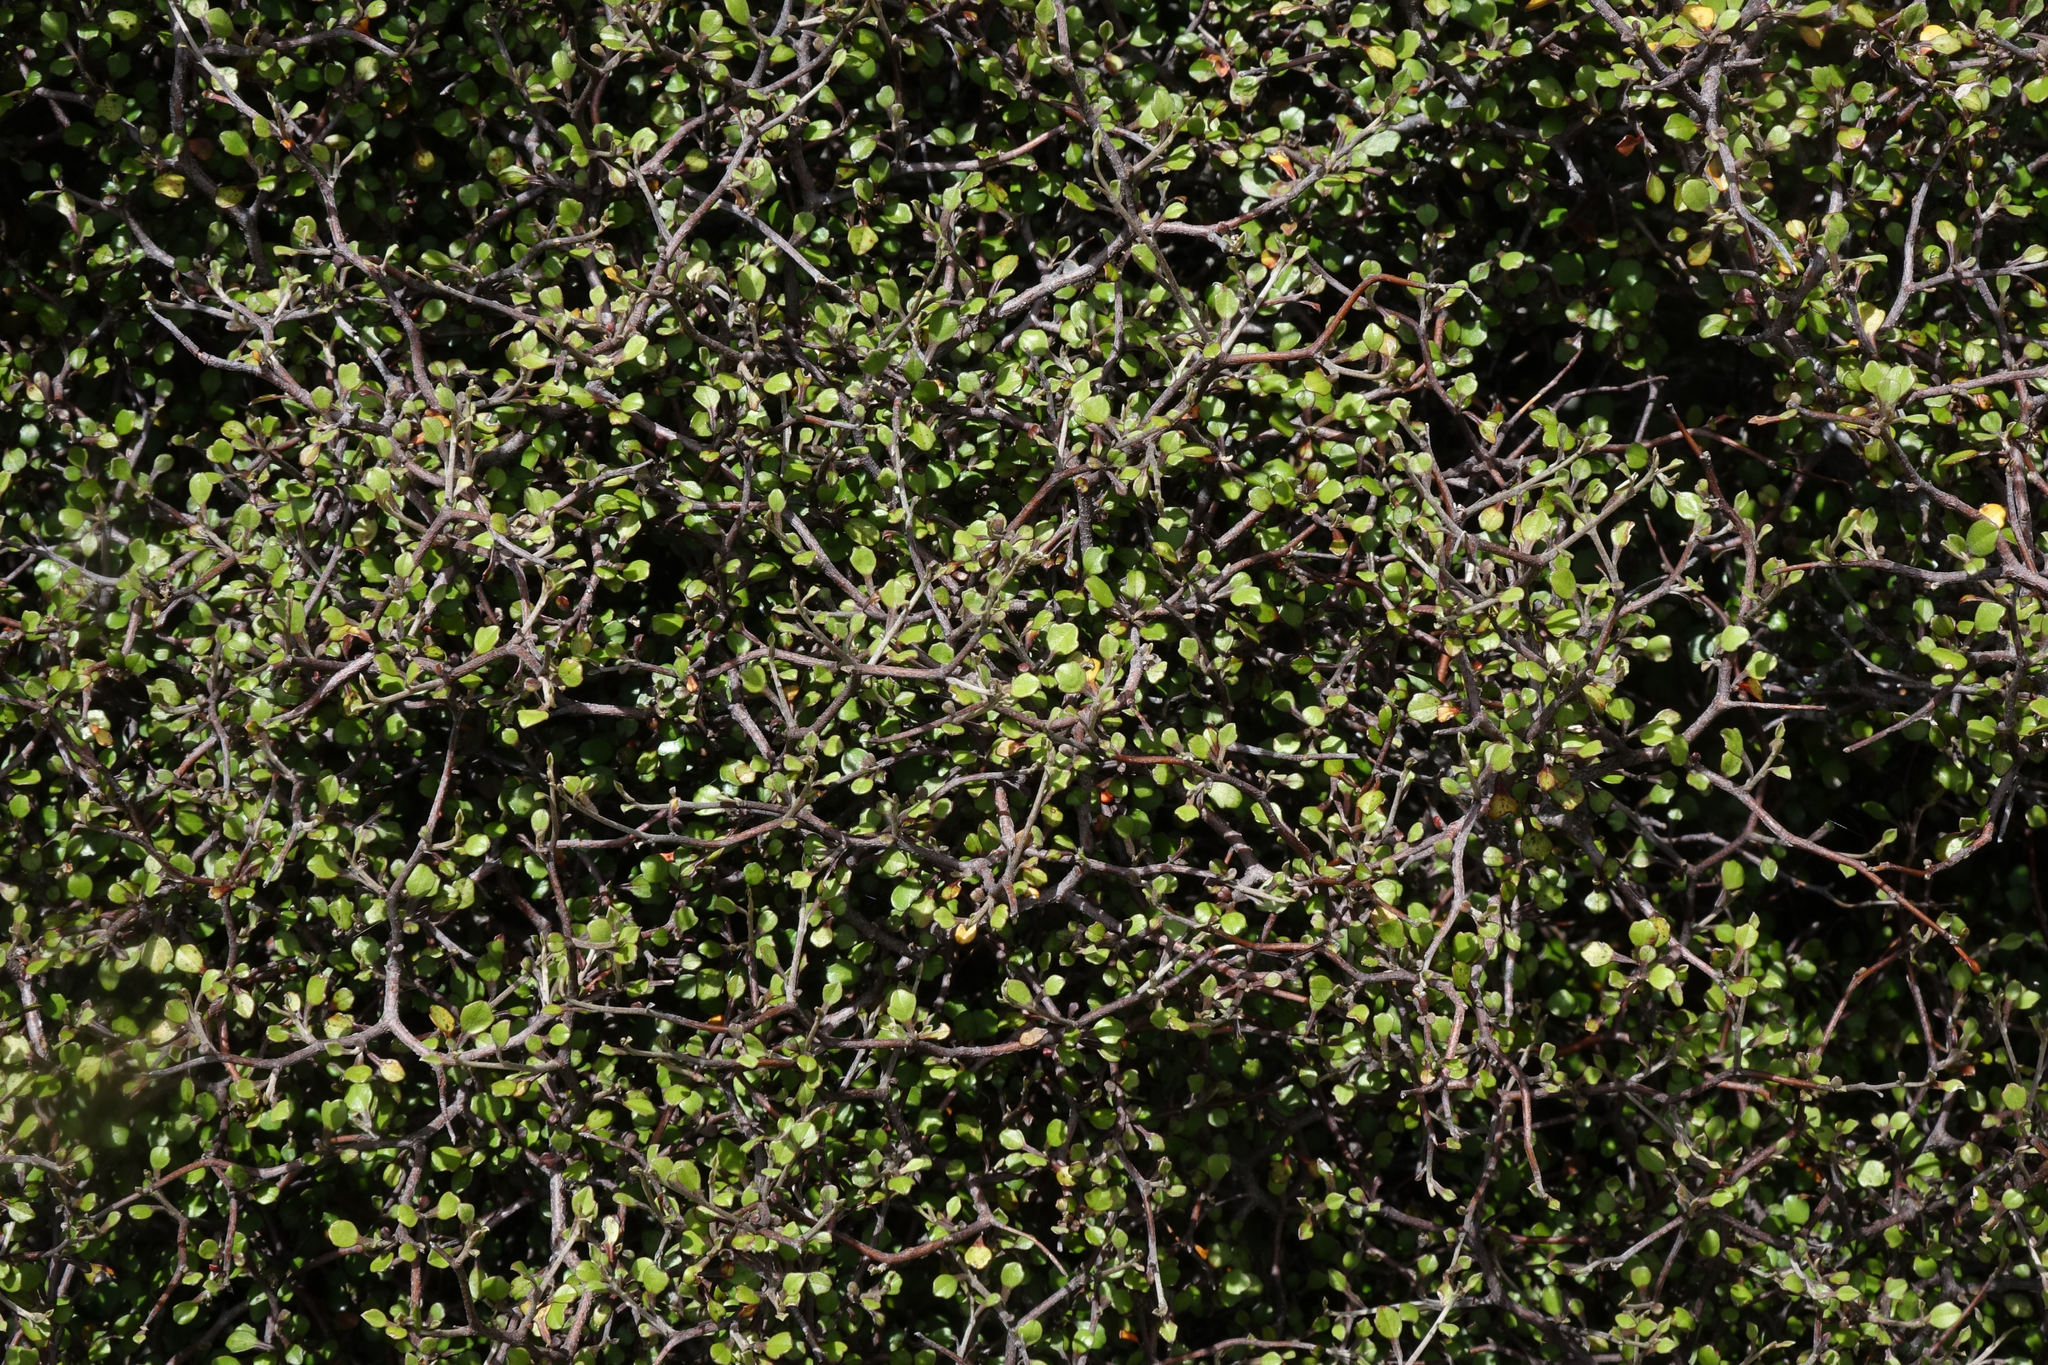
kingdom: Plantae
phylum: Tracheophyta
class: Magnoliopsida
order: Asterales
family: Argophyllaceae
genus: Corokia
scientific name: Corokia cotoneaster
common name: Wire nettingbush
